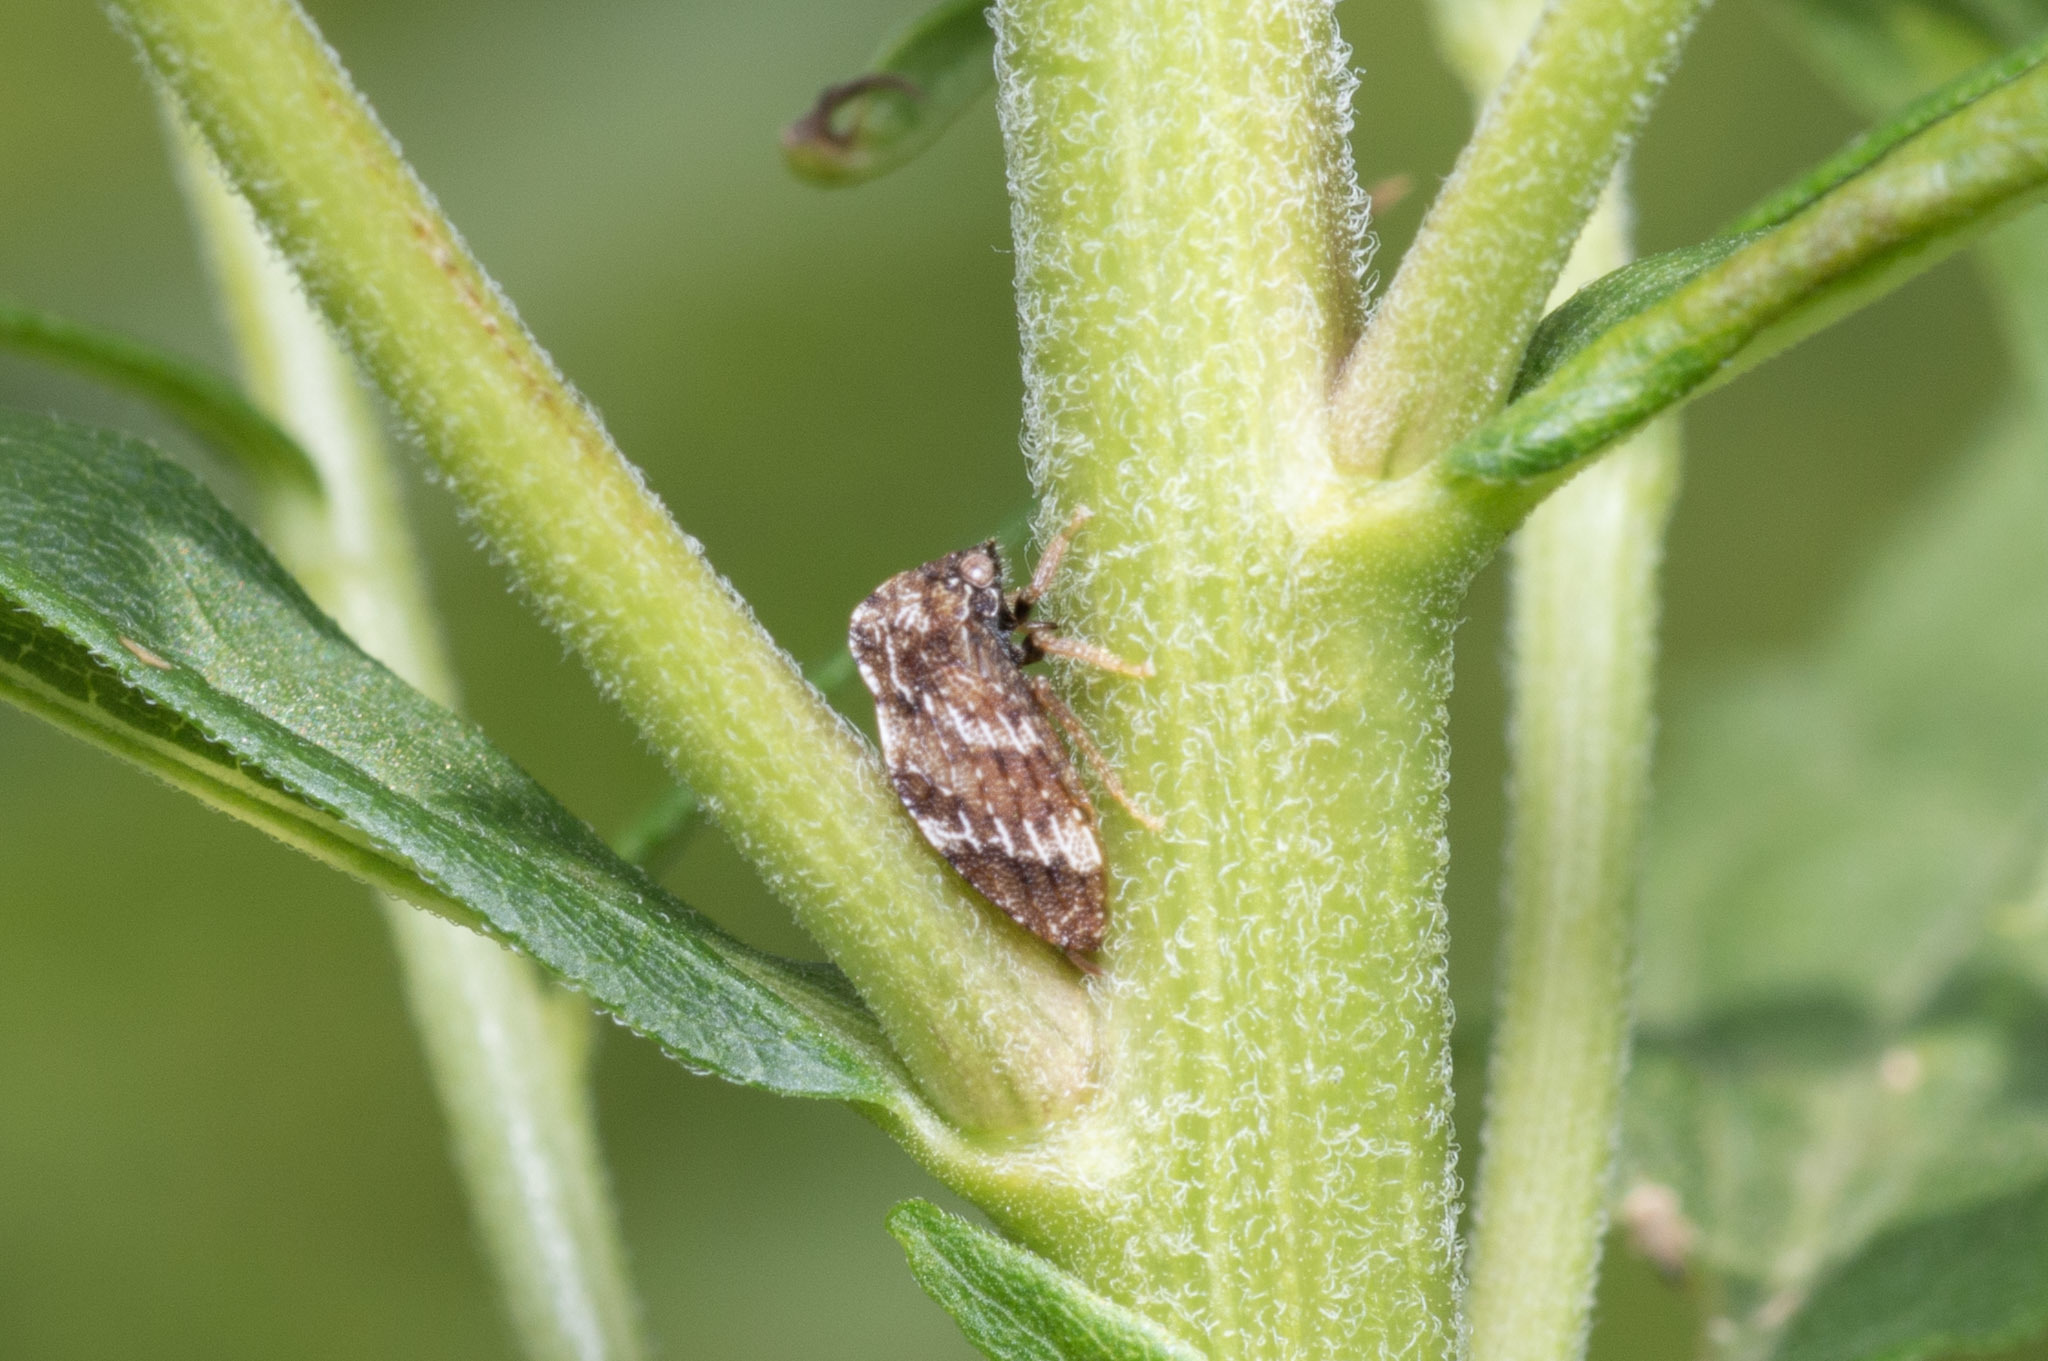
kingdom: Animalia
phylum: Arthropoda
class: Insecta
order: Hemiptera
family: Membracidae
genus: Publilia
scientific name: Publilia concava
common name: Aster treehopper
